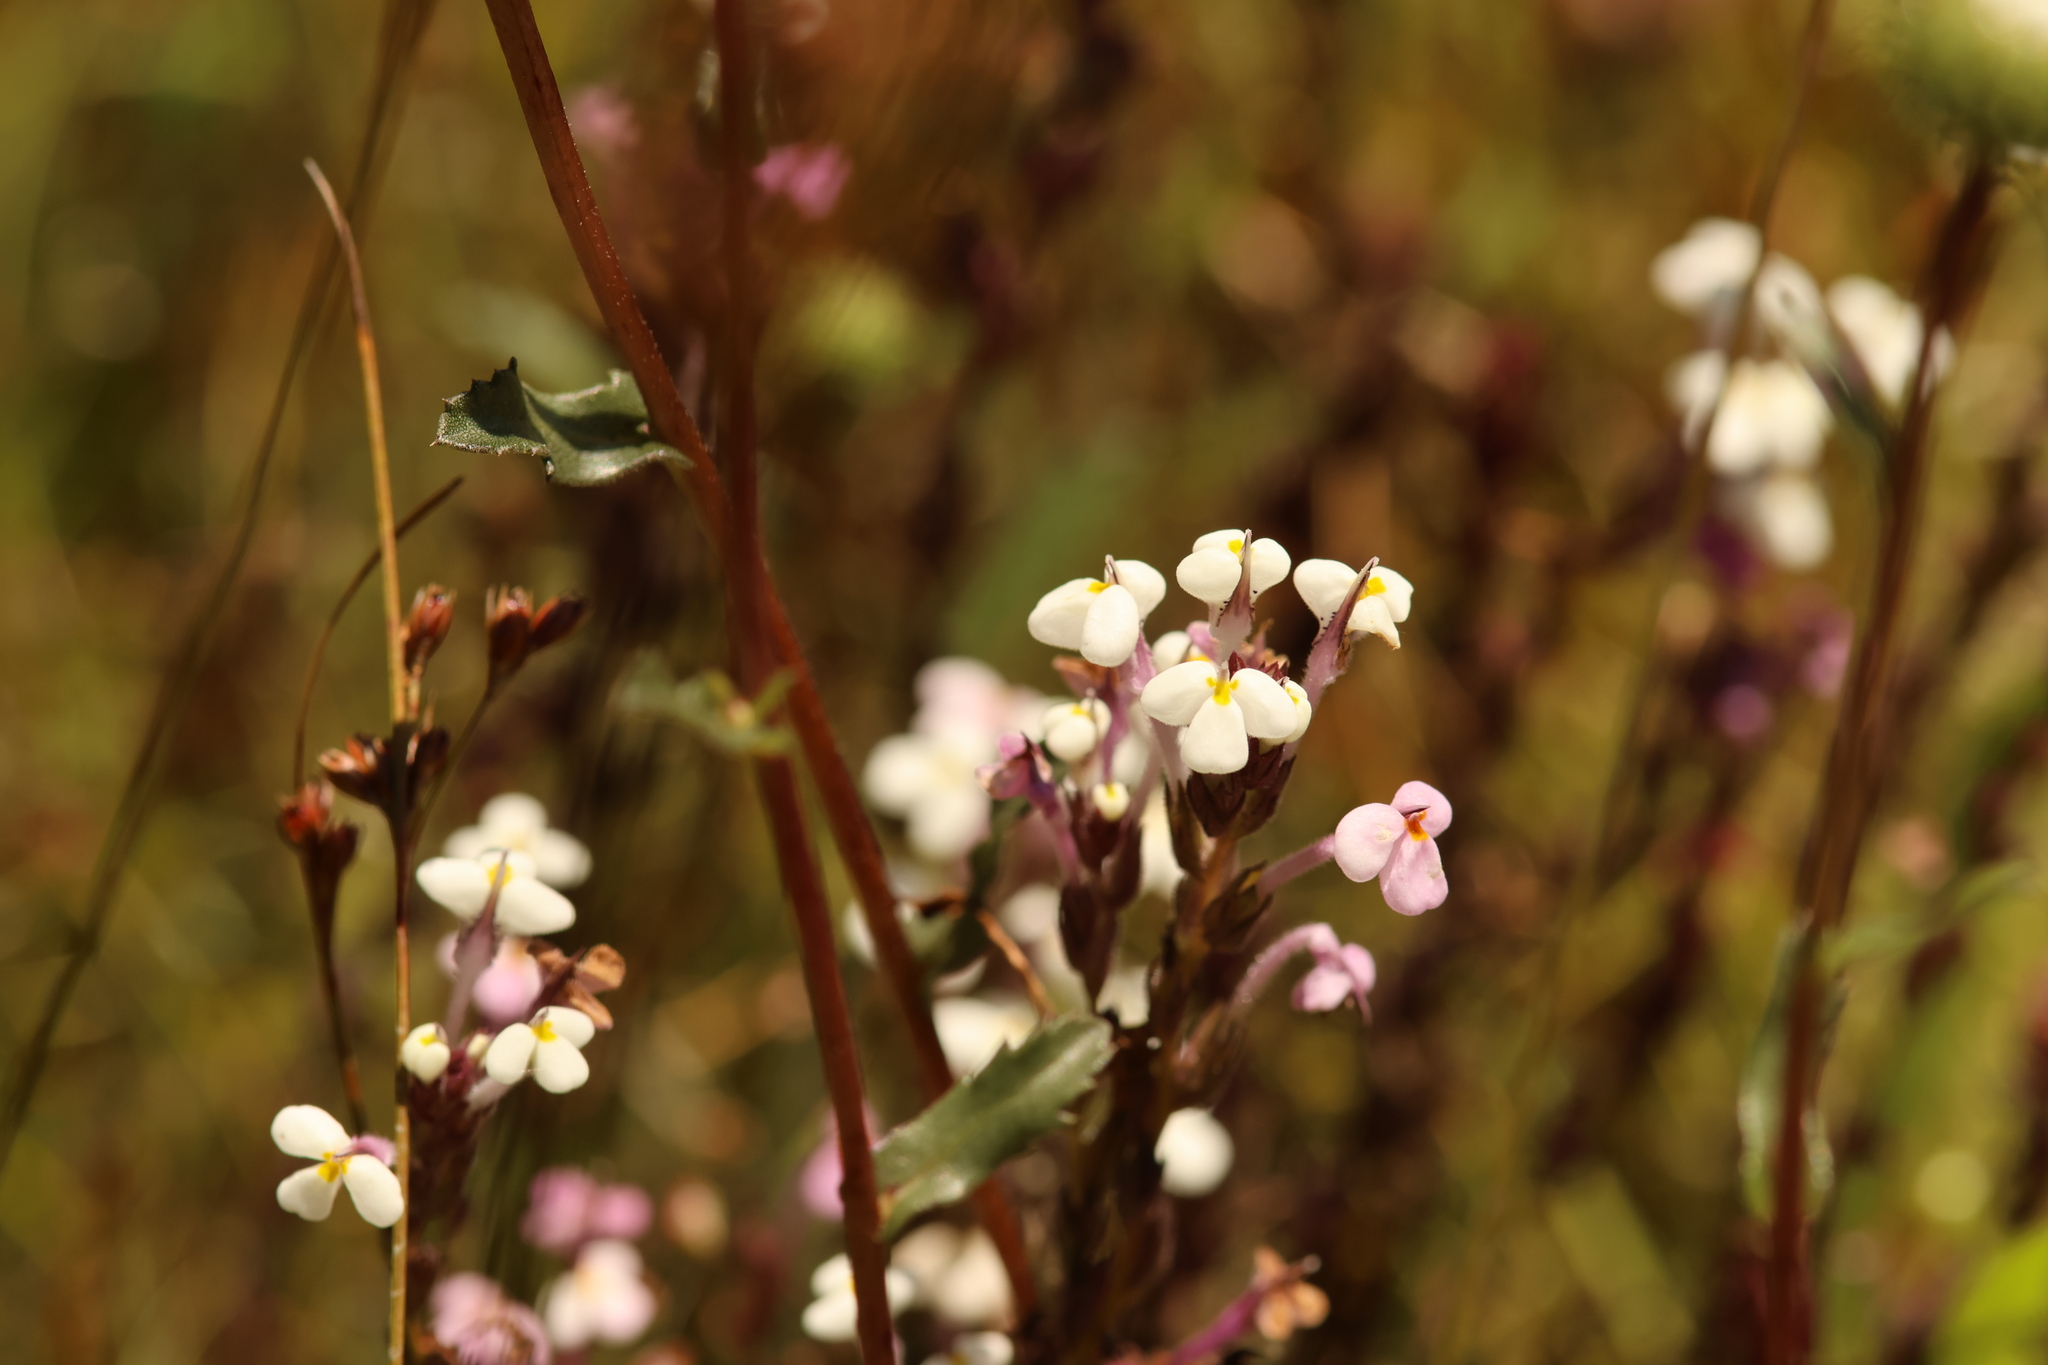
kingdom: Plantae
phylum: Tracheophyta
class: Magnoliopsida
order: Lamiales
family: Orobanchaceae
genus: Triphysaria
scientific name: Triphysaria versicolor
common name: Bearded false owl-clover
